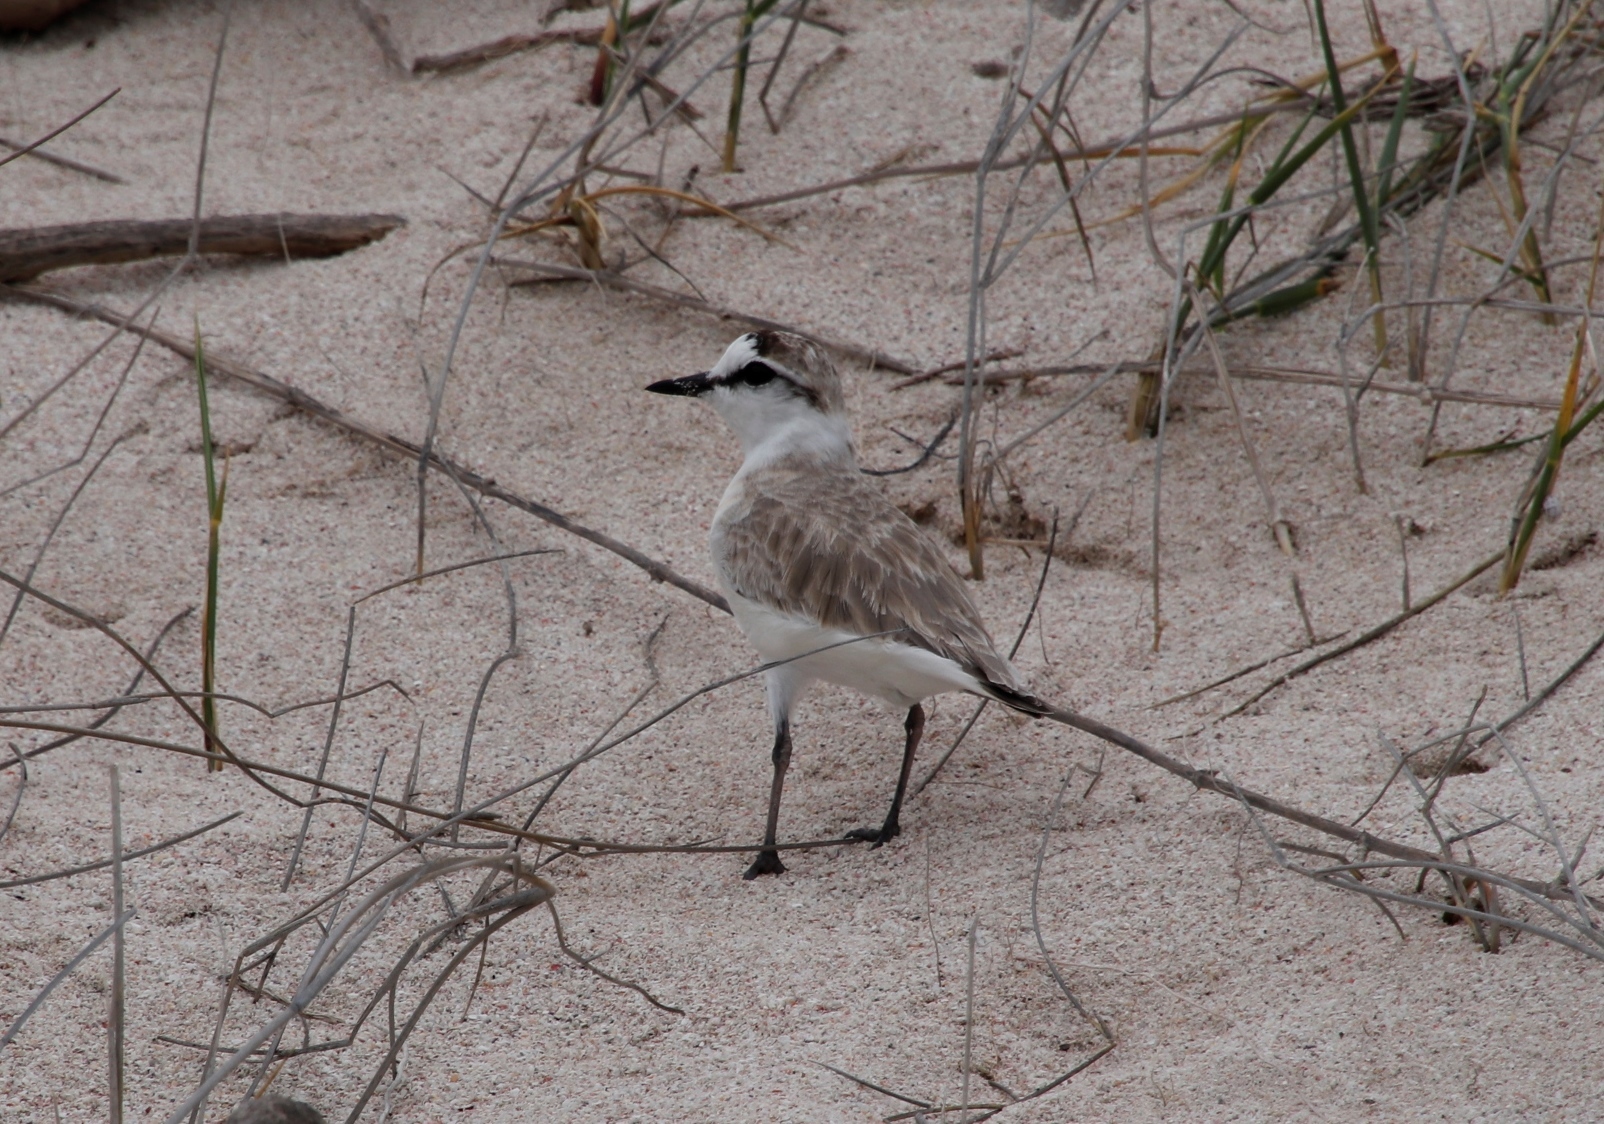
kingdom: Animalia
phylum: Chordata
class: Aves
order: Charadriiformes
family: Charadriidae
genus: Anarhynchus
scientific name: Anarhynchus
